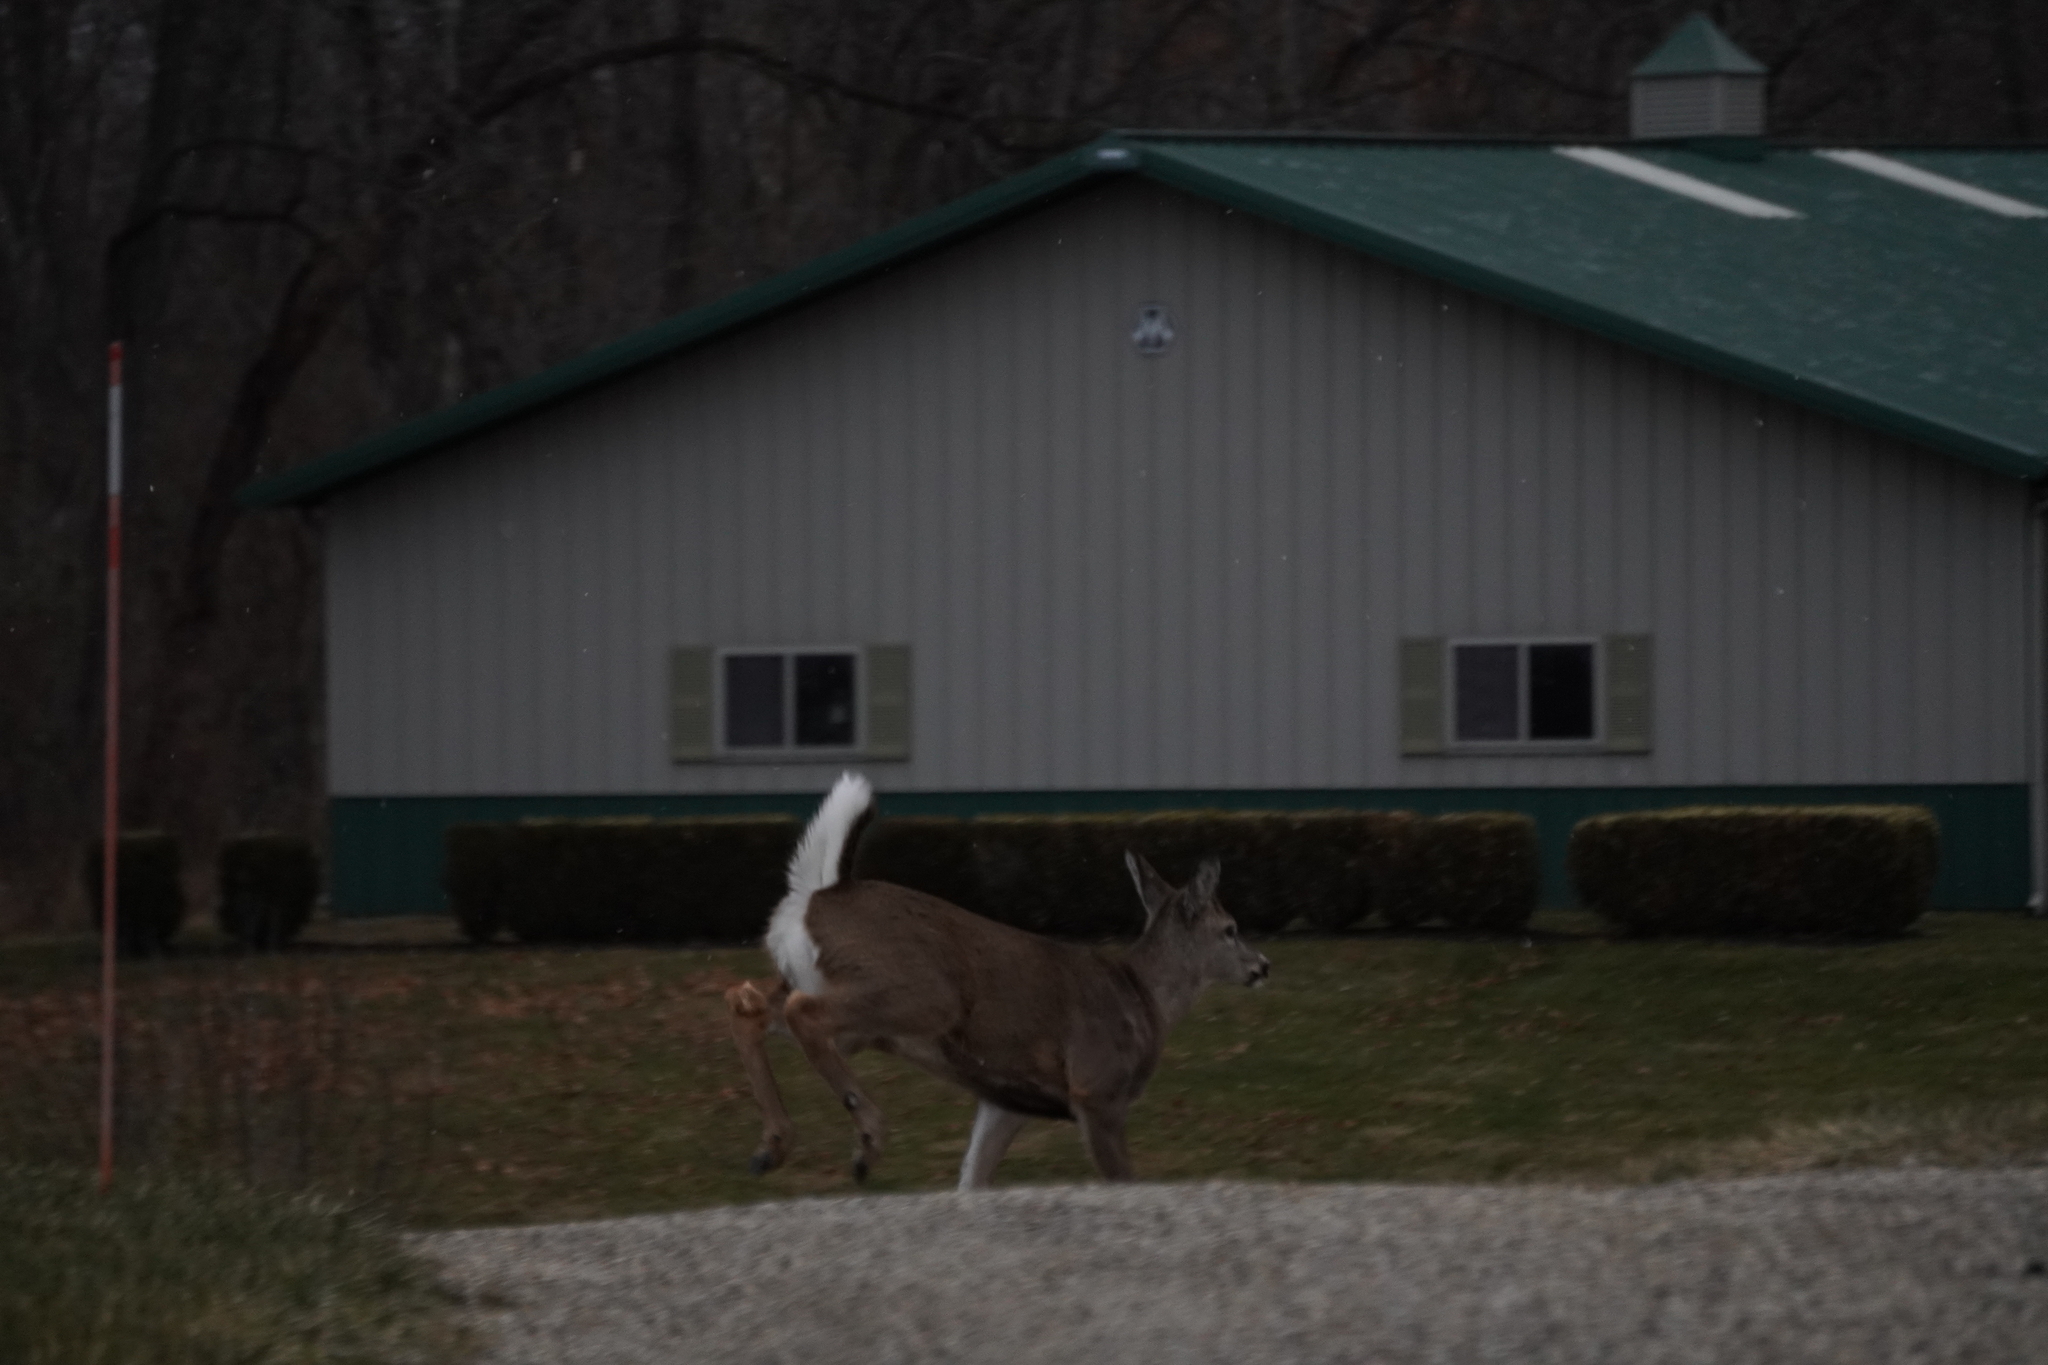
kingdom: Animalia
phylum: Chordata
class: Mammalia
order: Artiodactyla
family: Cervidae
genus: Odocoileus
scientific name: Odocoileus virginianus
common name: White-tailed deer
